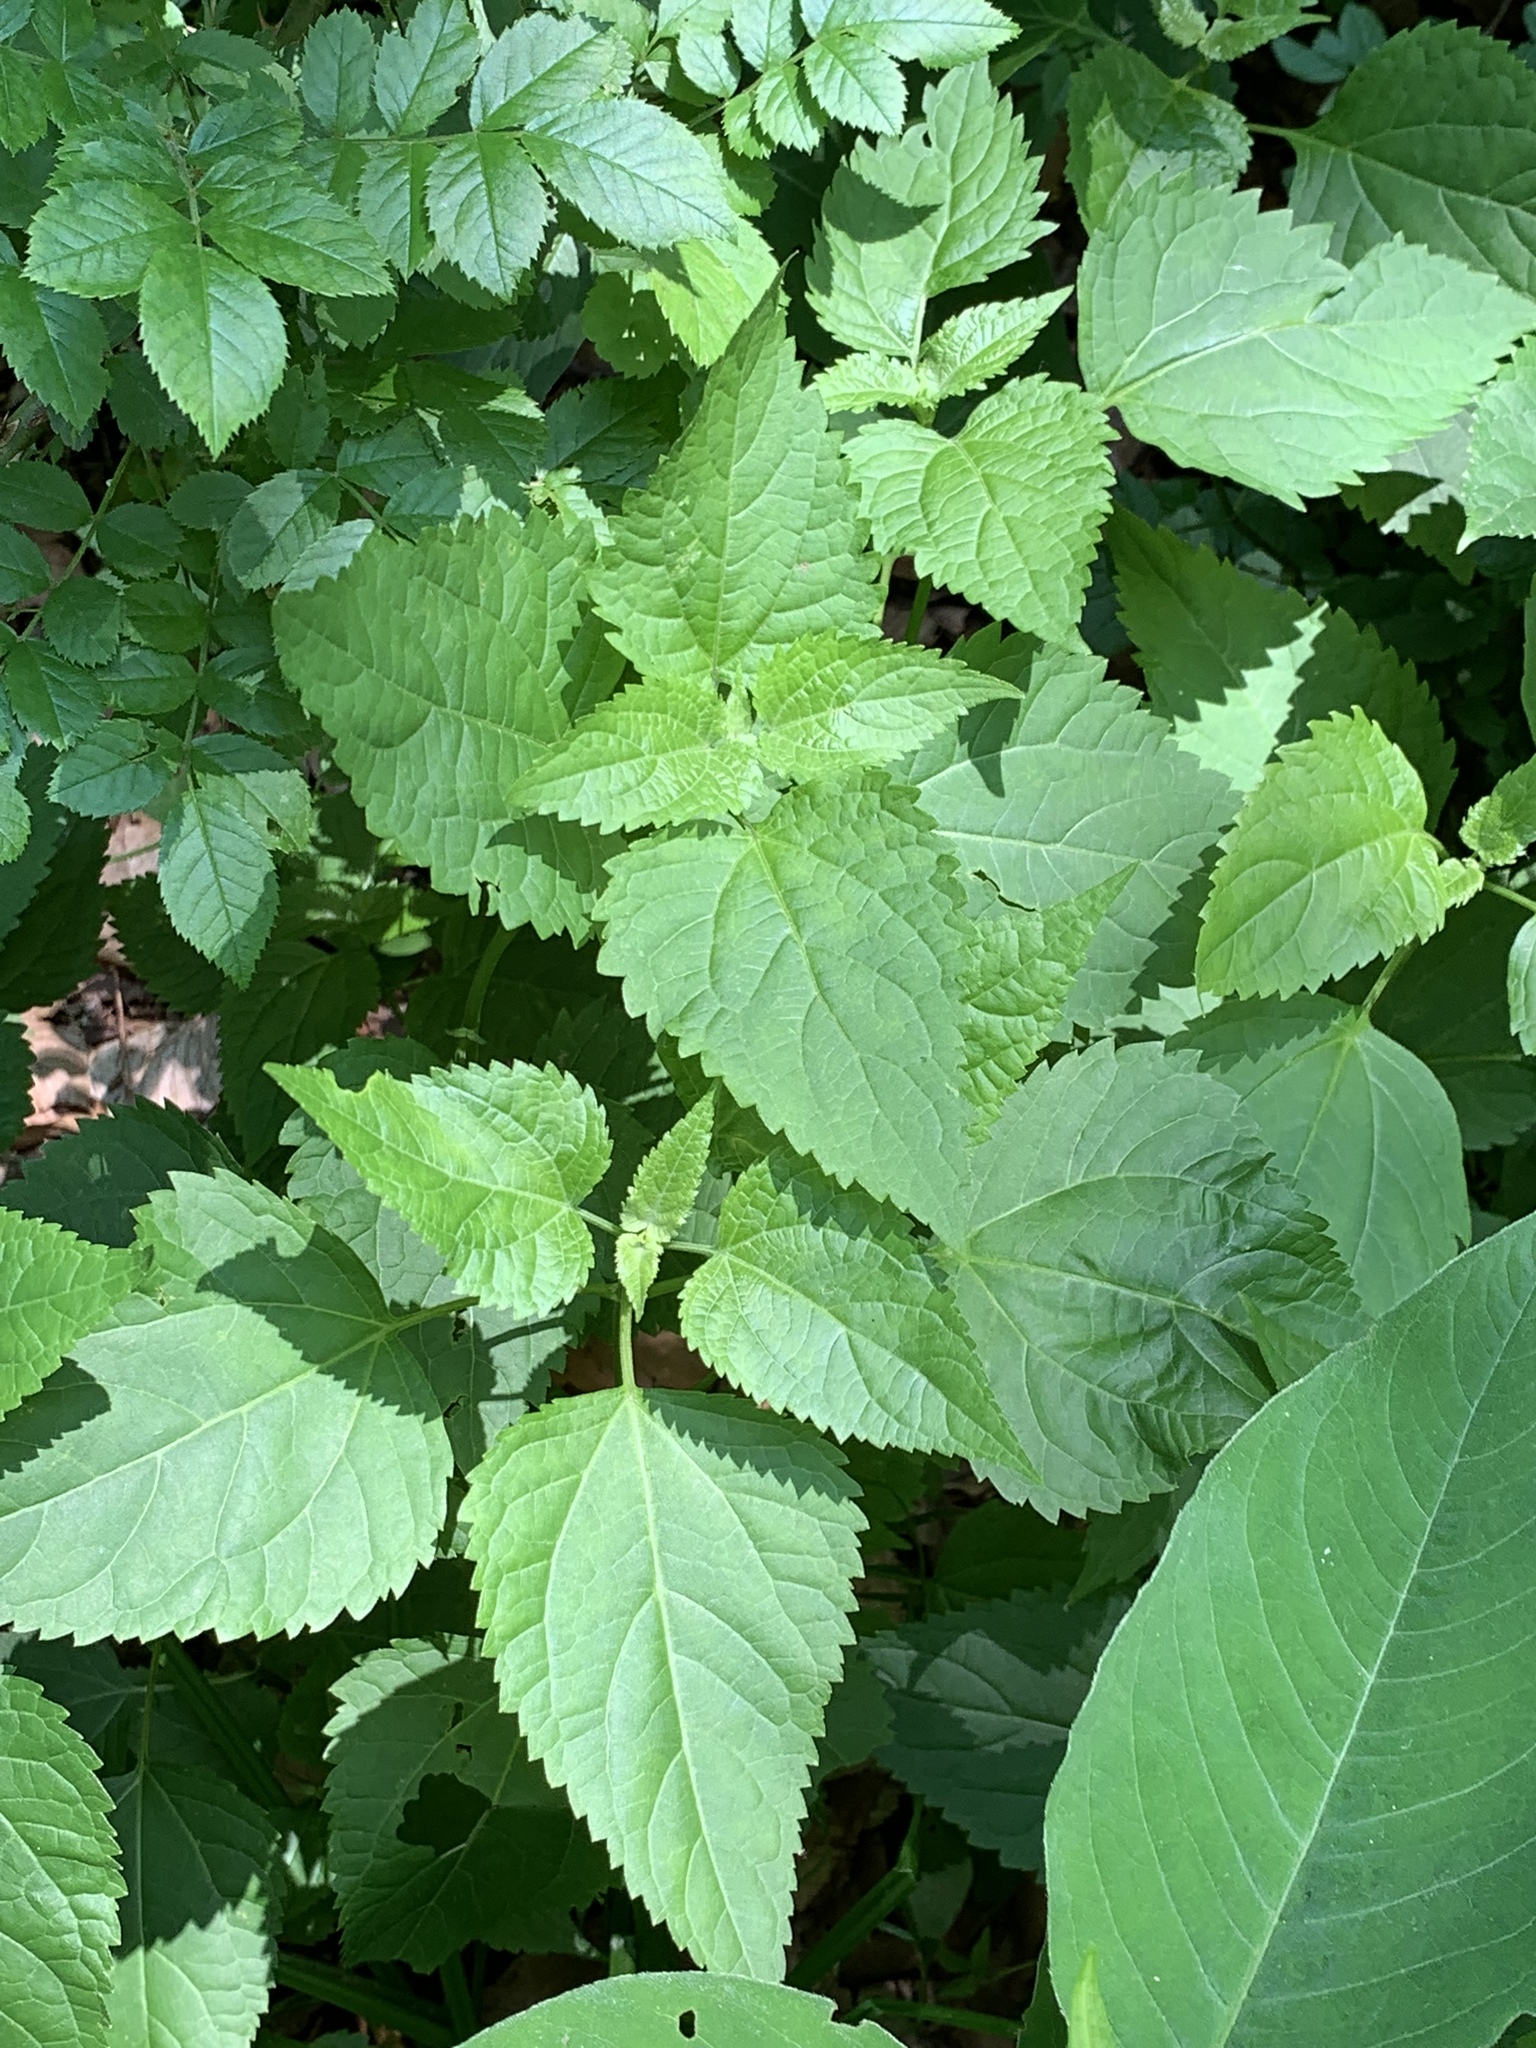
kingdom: Plantae
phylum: Tracheophyta
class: Magnoliopsida
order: Asterales
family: Asteraceae
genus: Ageratina
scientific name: Ageratina altissima
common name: White snakeroot
